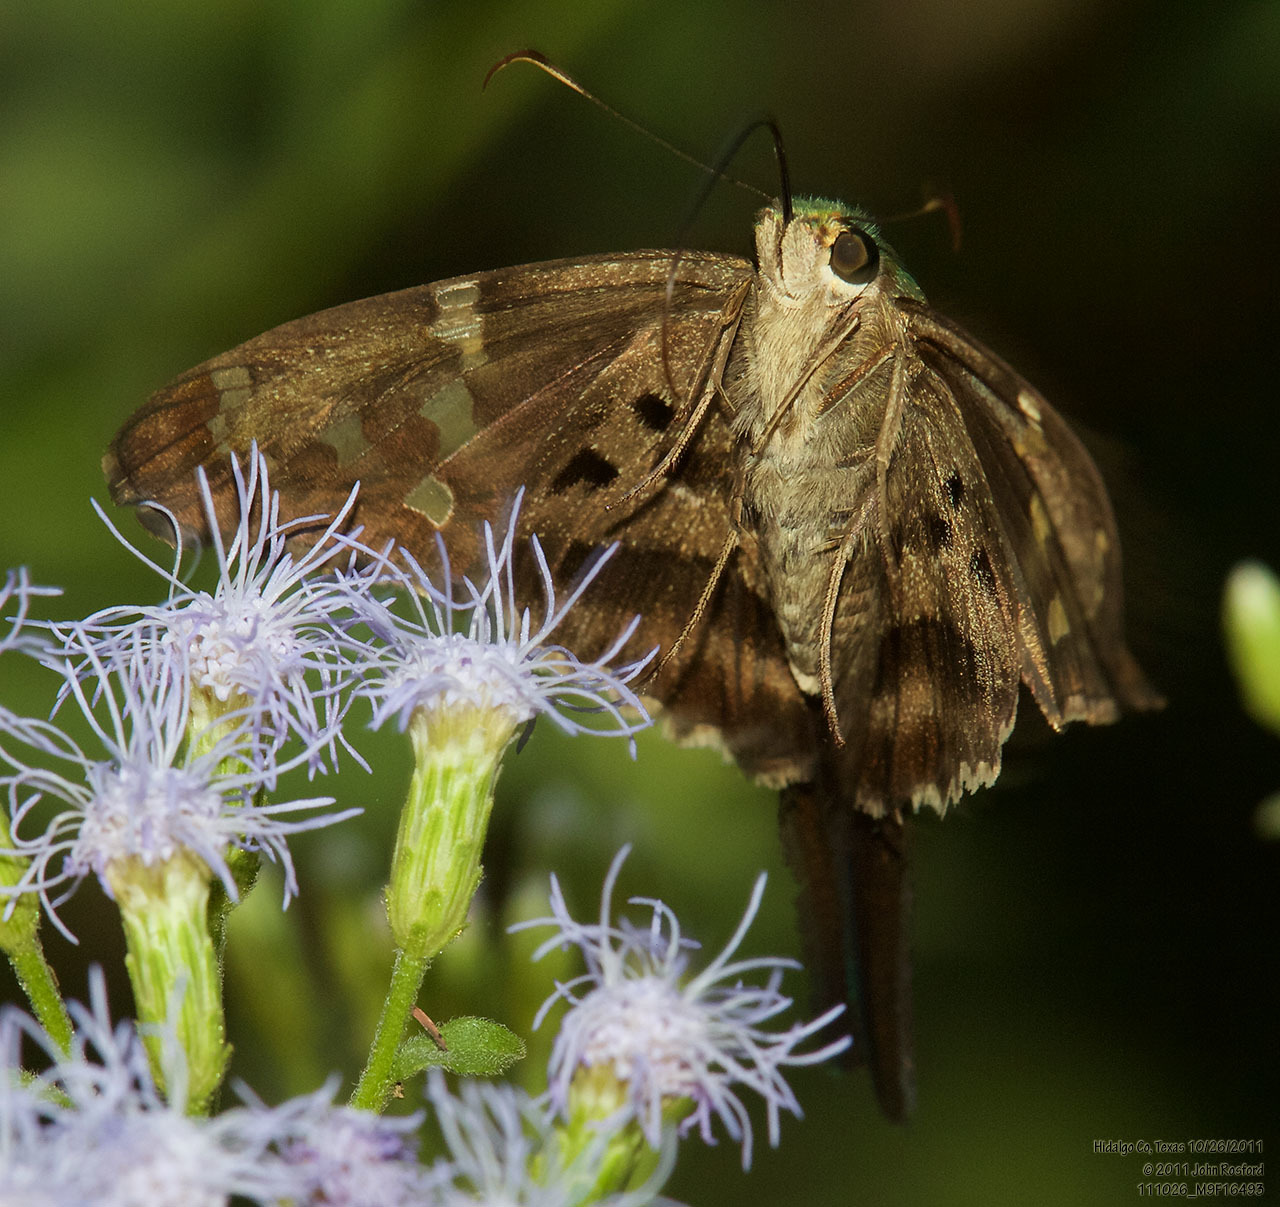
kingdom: Animalia
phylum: Arthropoda
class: Insecta
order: Lepidoptera
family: Hesperiidae
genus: Urbanus
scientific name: Urbanus proteus
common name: Long-tailed skipper
